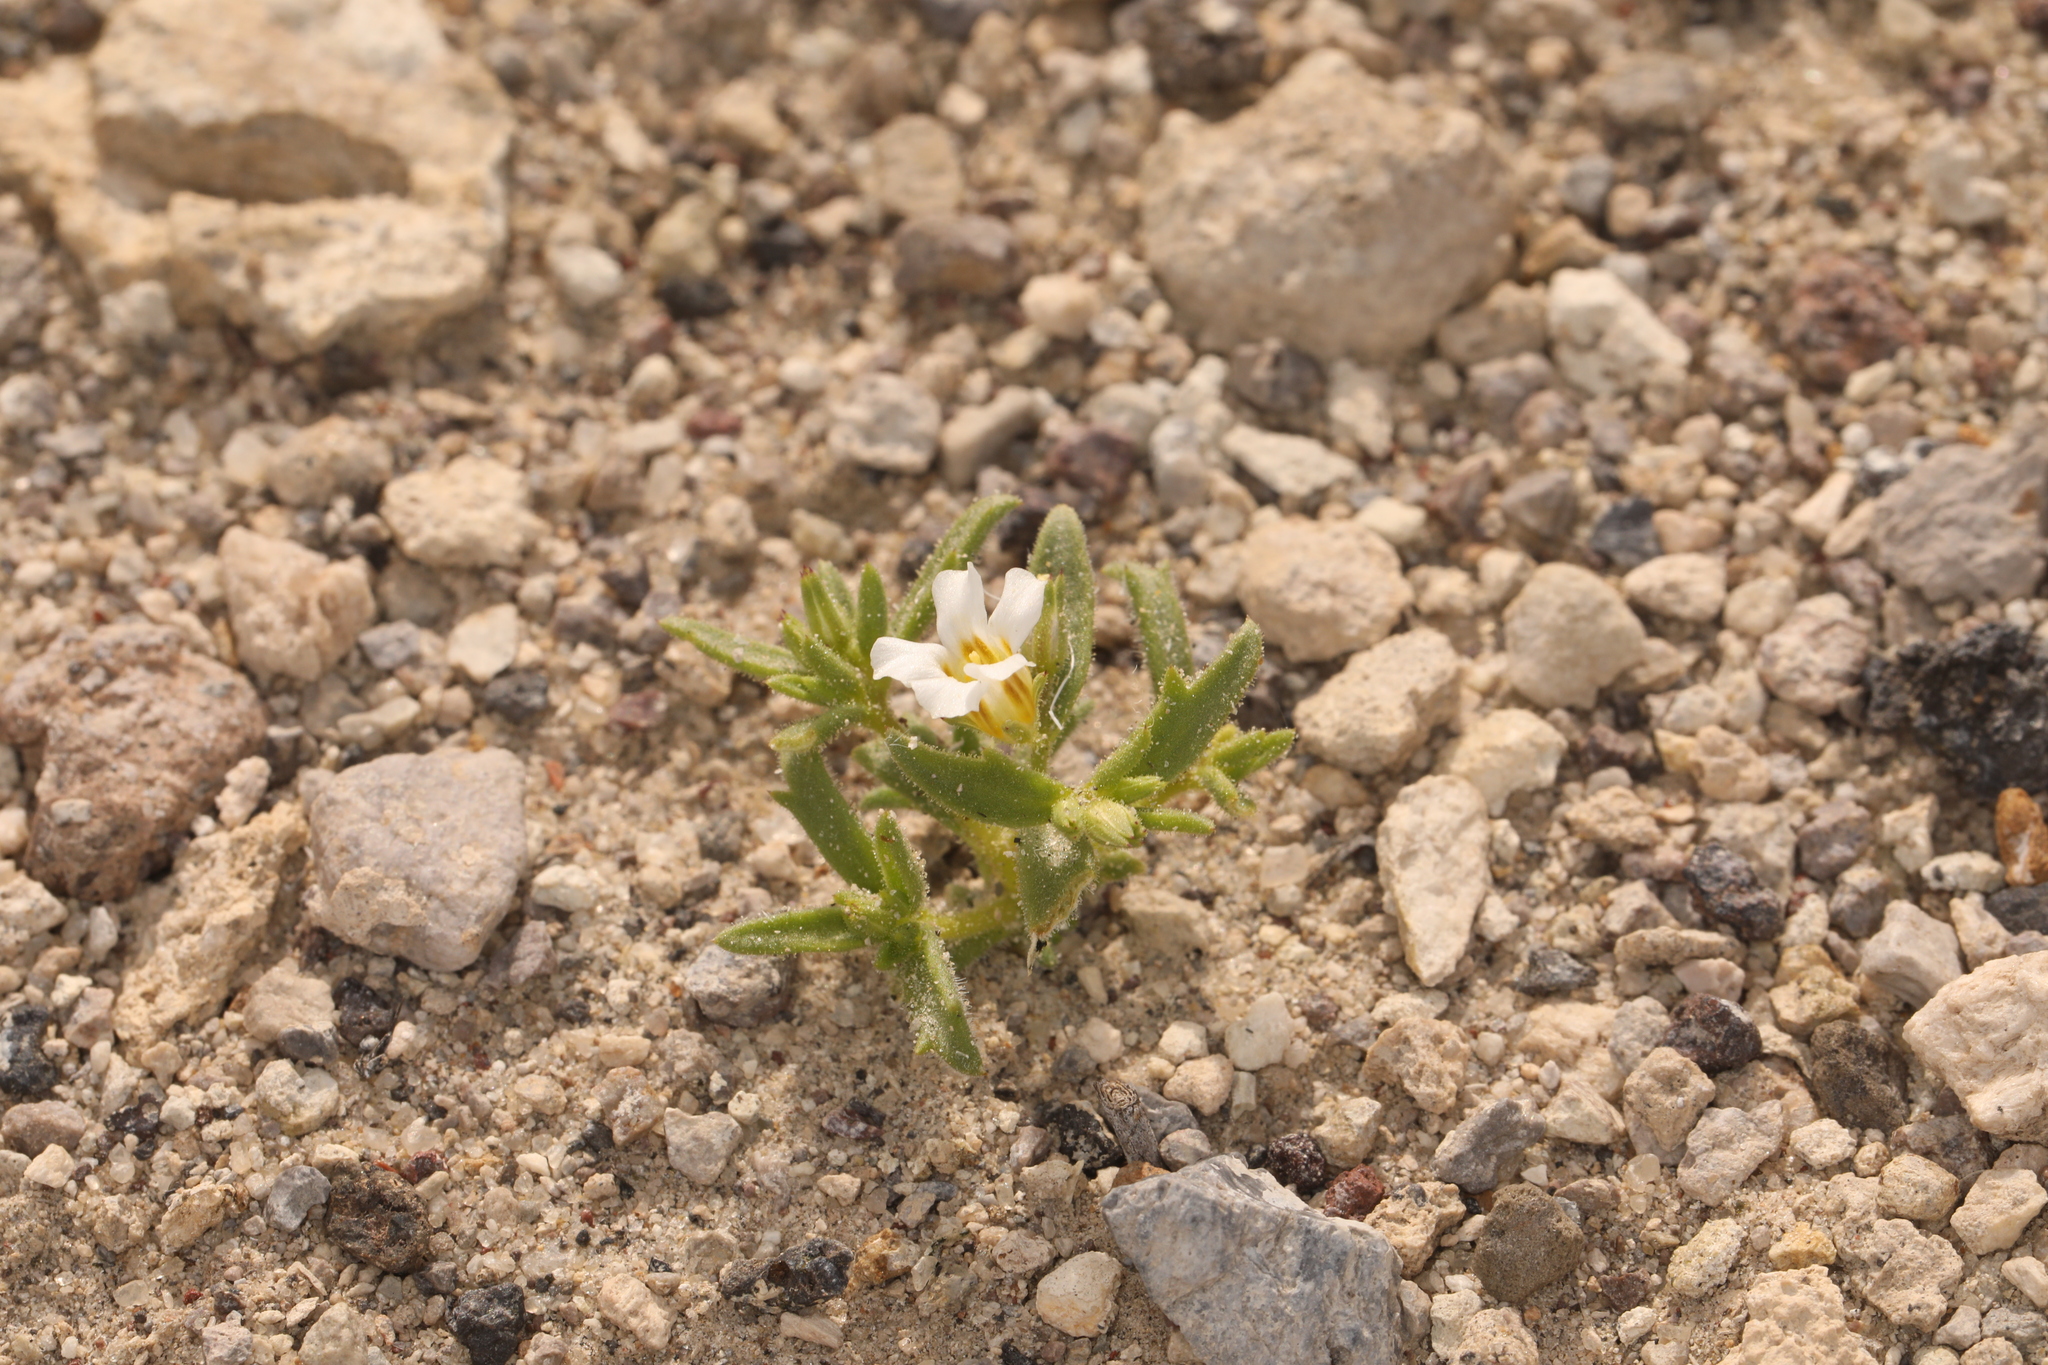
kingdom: Plantae
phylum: Tracheophyta
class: Magnoliopsida
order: Ericales
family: Polemoniaceae
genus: Linanthus
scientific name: Linanthus campanulatus
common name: Bellshape gilia
